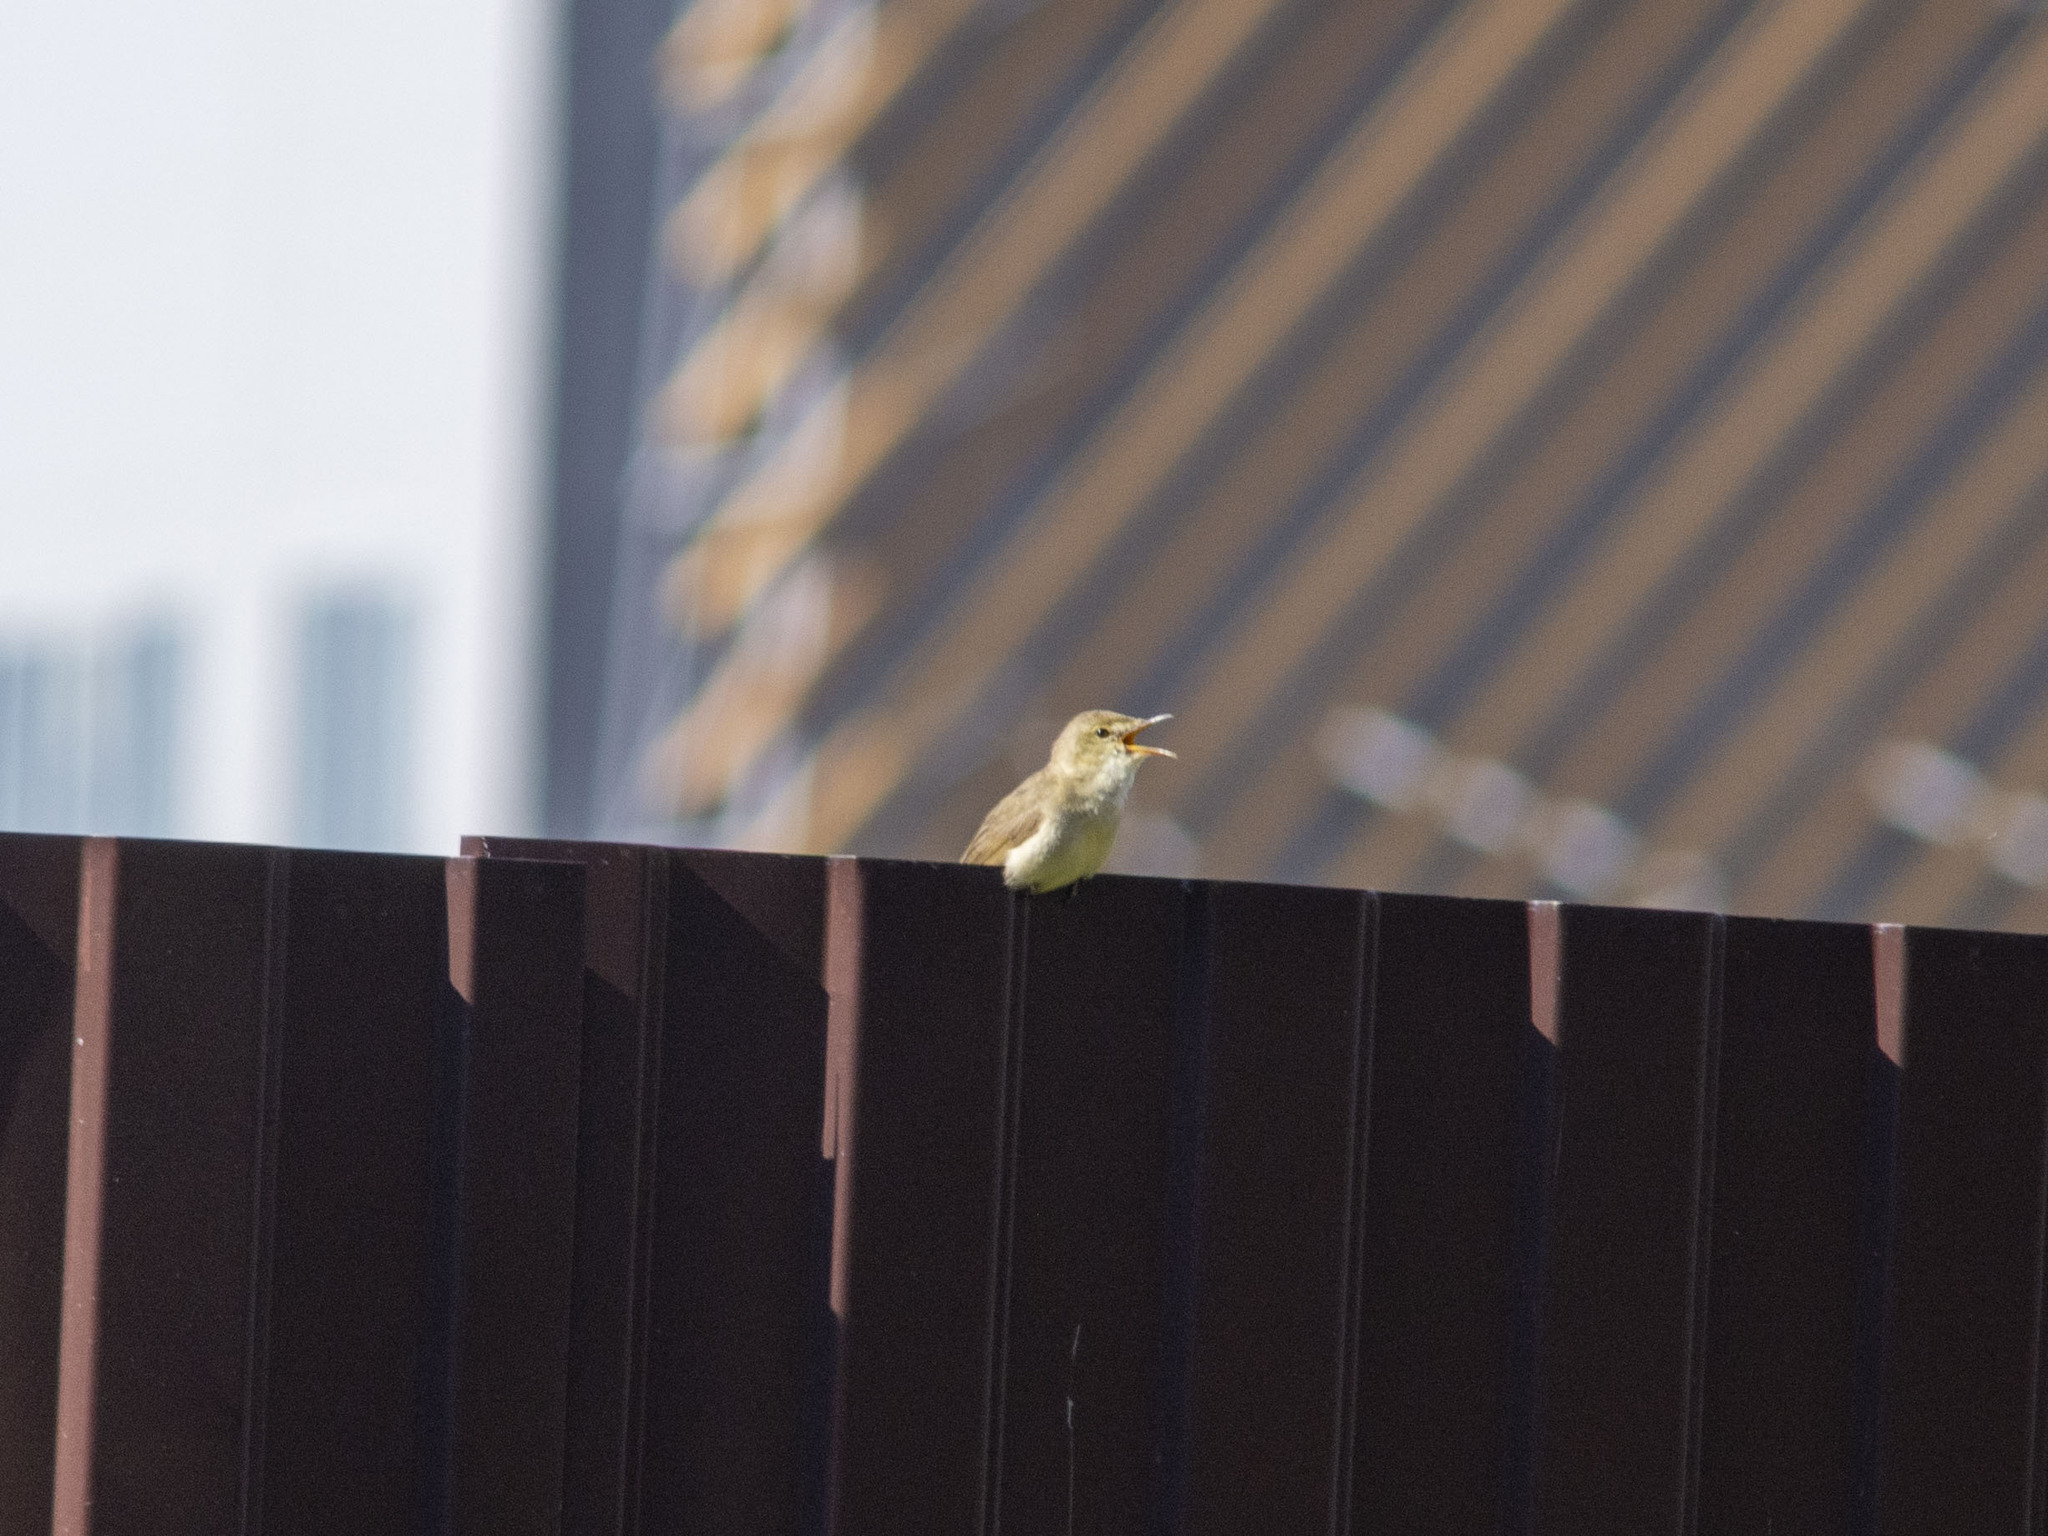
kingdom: Animalia
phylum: Chordata
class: Aves
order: Passeriformes
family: Acrocephalidae
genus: Acrocephalus
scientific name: Acrocephalus dumetorum
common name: Blyth's reed warbler
